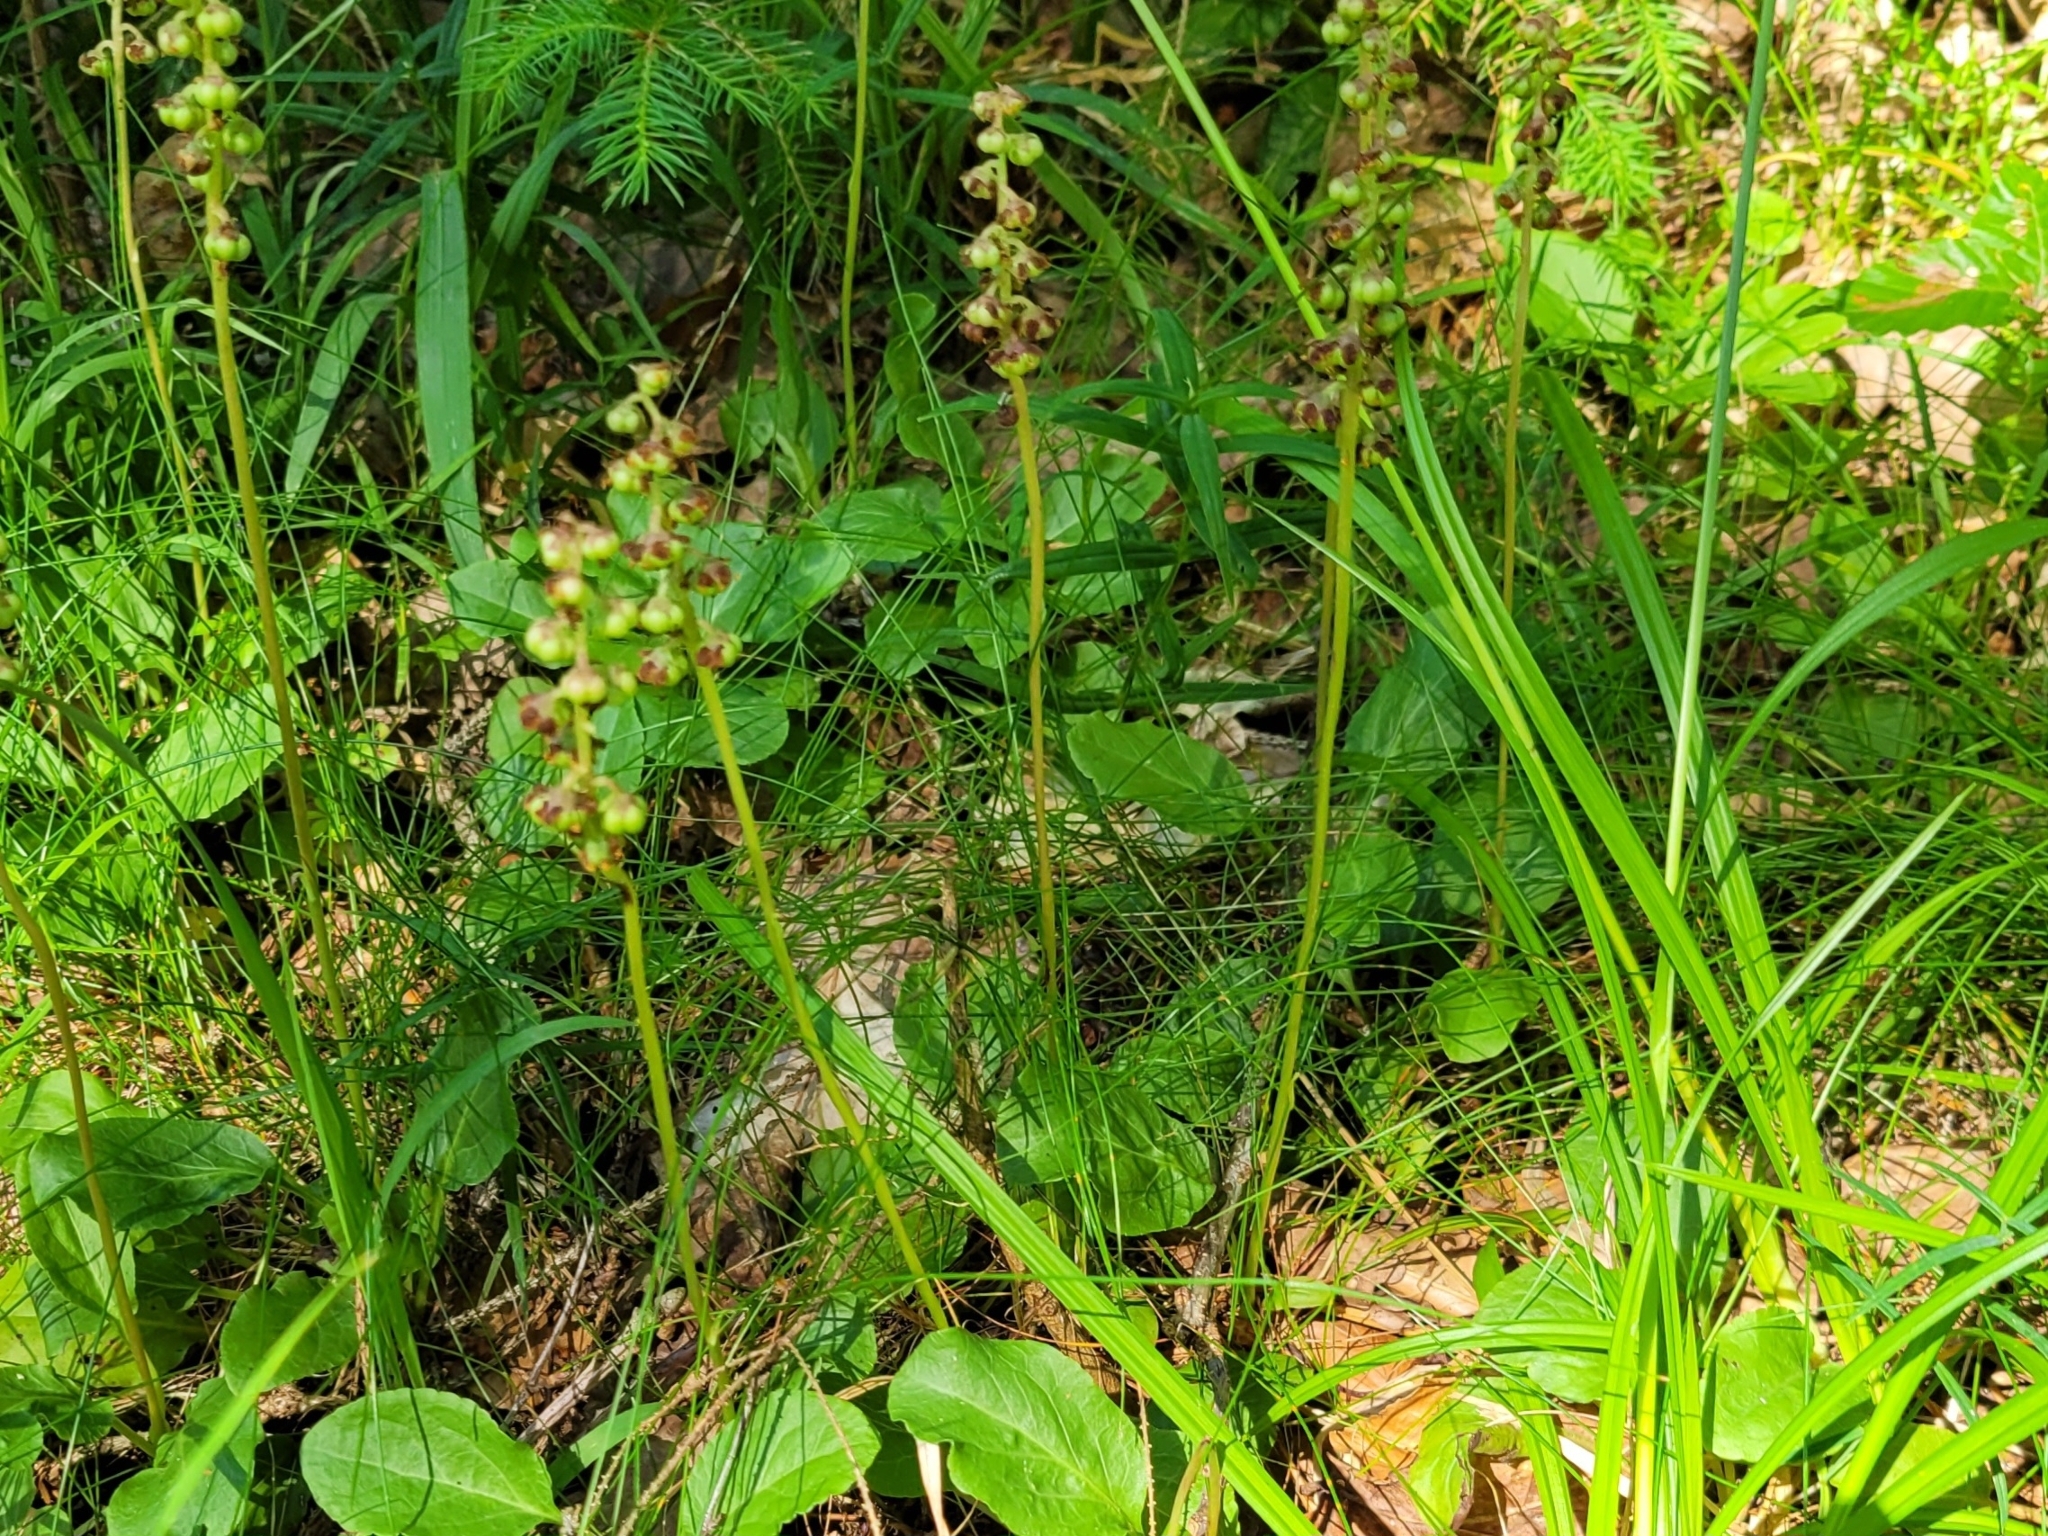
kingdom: Plantae
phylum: Tracheophyta
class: Magnoliopsida
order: Ericales
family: Ericaceae
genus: Pyrola
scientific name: Pyrola minor
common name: Common wintergreen
